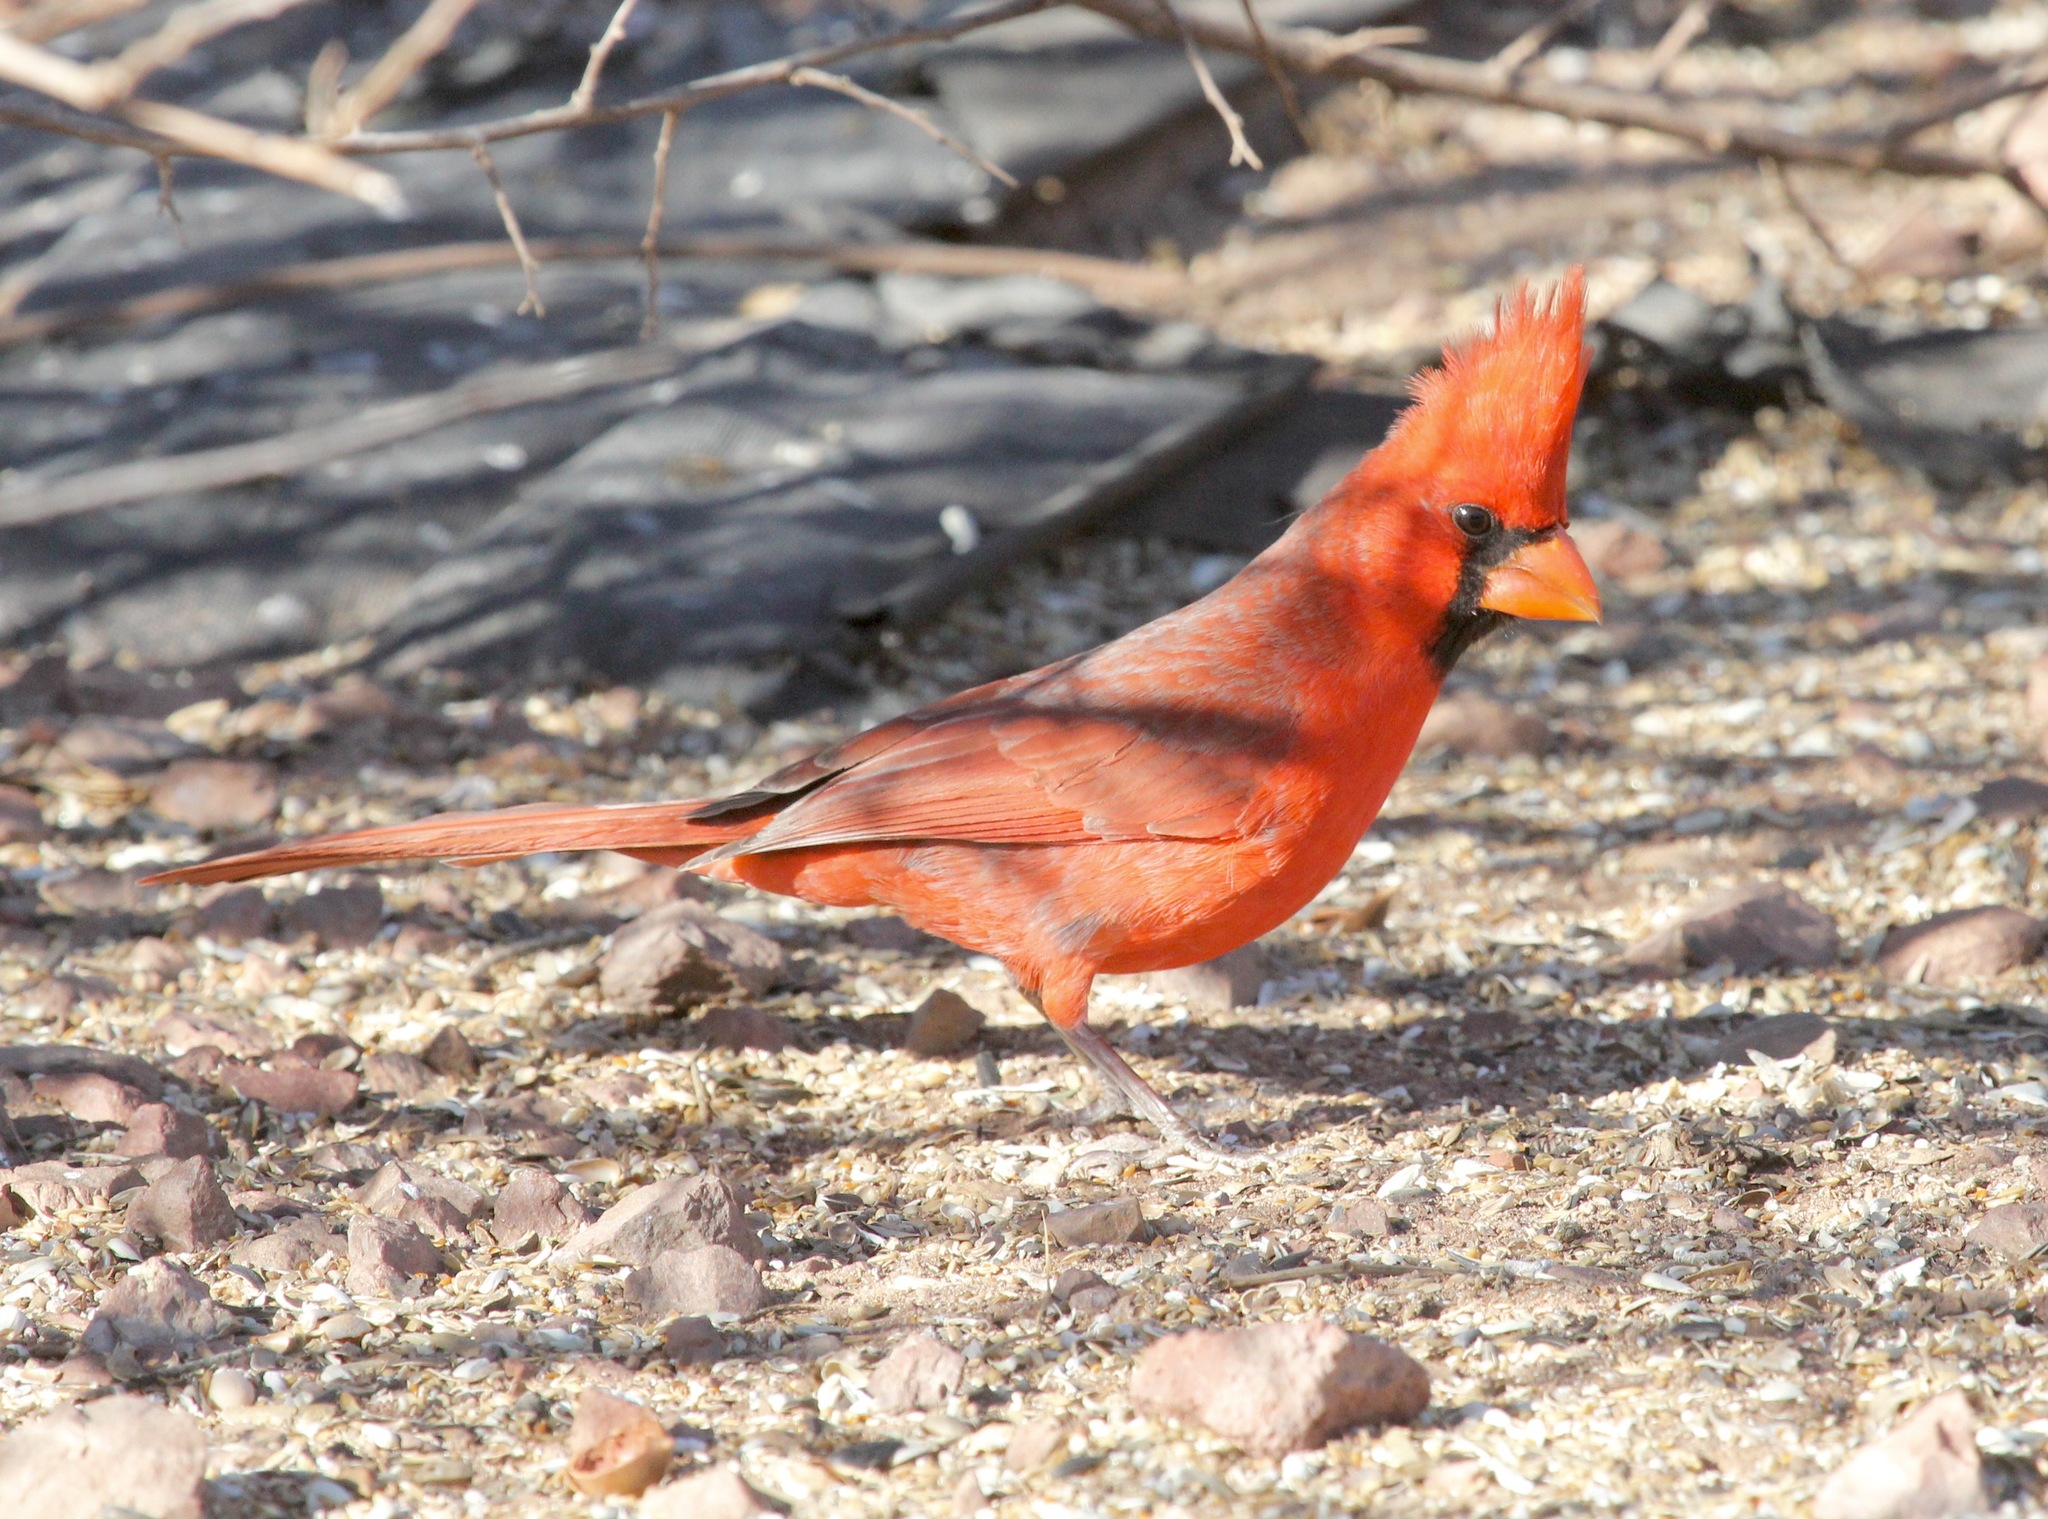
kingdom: Animalia
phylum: Chordata
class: Aves
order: Passeriformes
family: Cardinalidae
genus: Cardinalis
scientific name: Cardinalis cardinalis
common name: Northern cardinal
